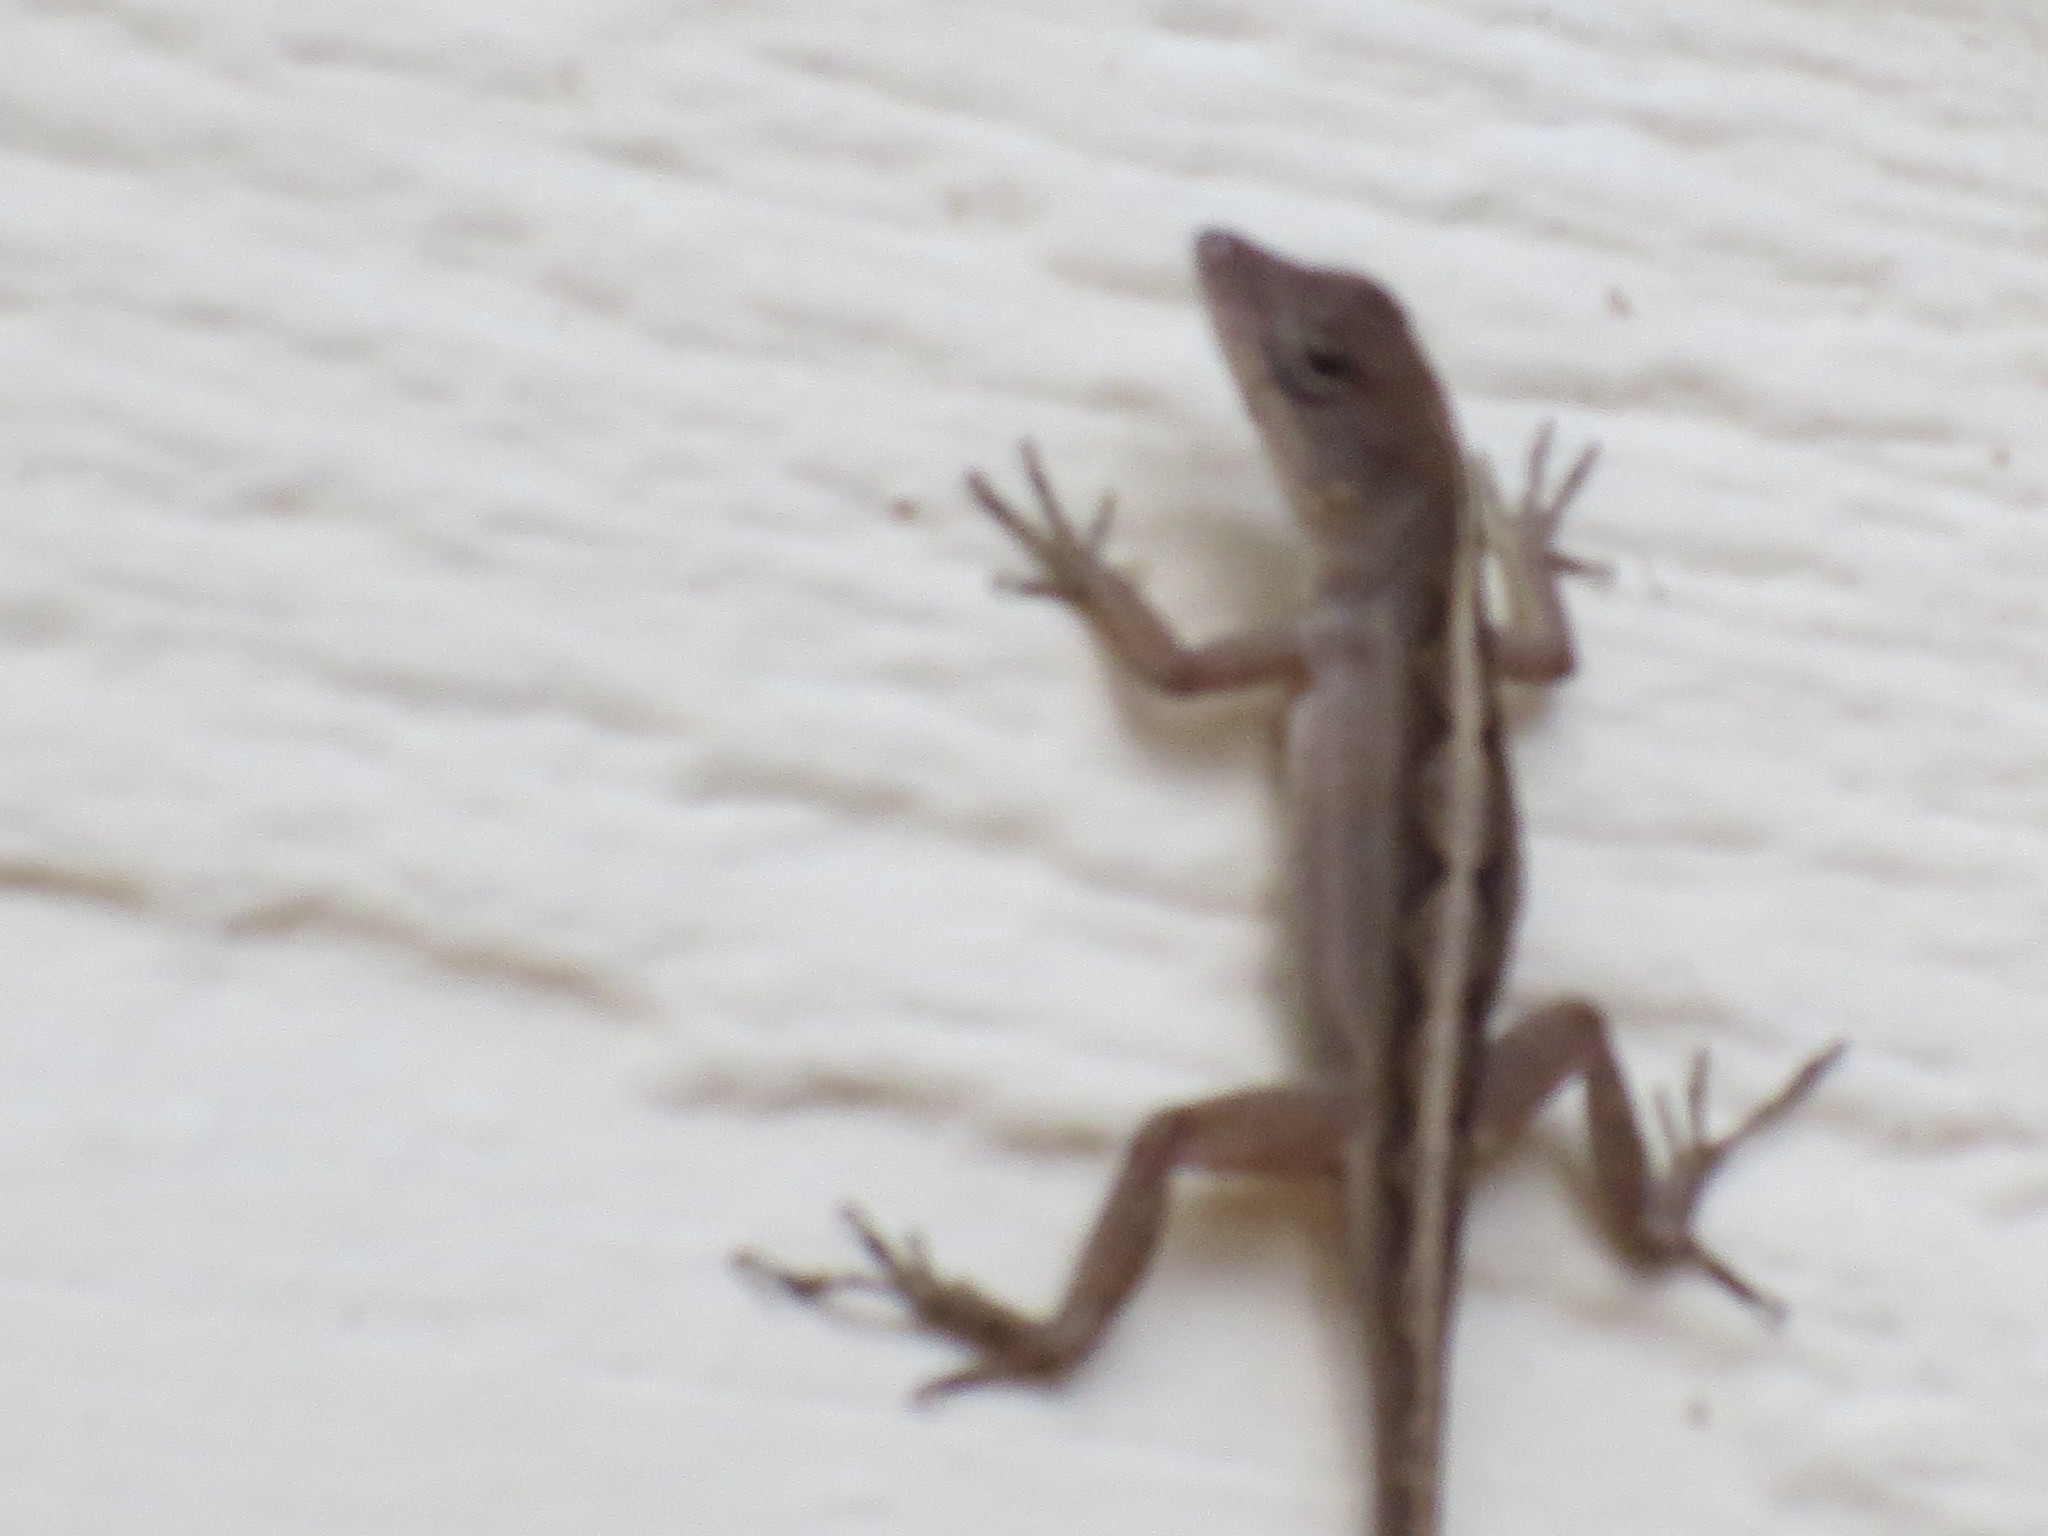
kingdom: Animalia
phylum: Chordata
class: Squamata
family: Dactyloidae
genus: Anolis
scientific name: Anolis sagrei
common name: Brown anole
